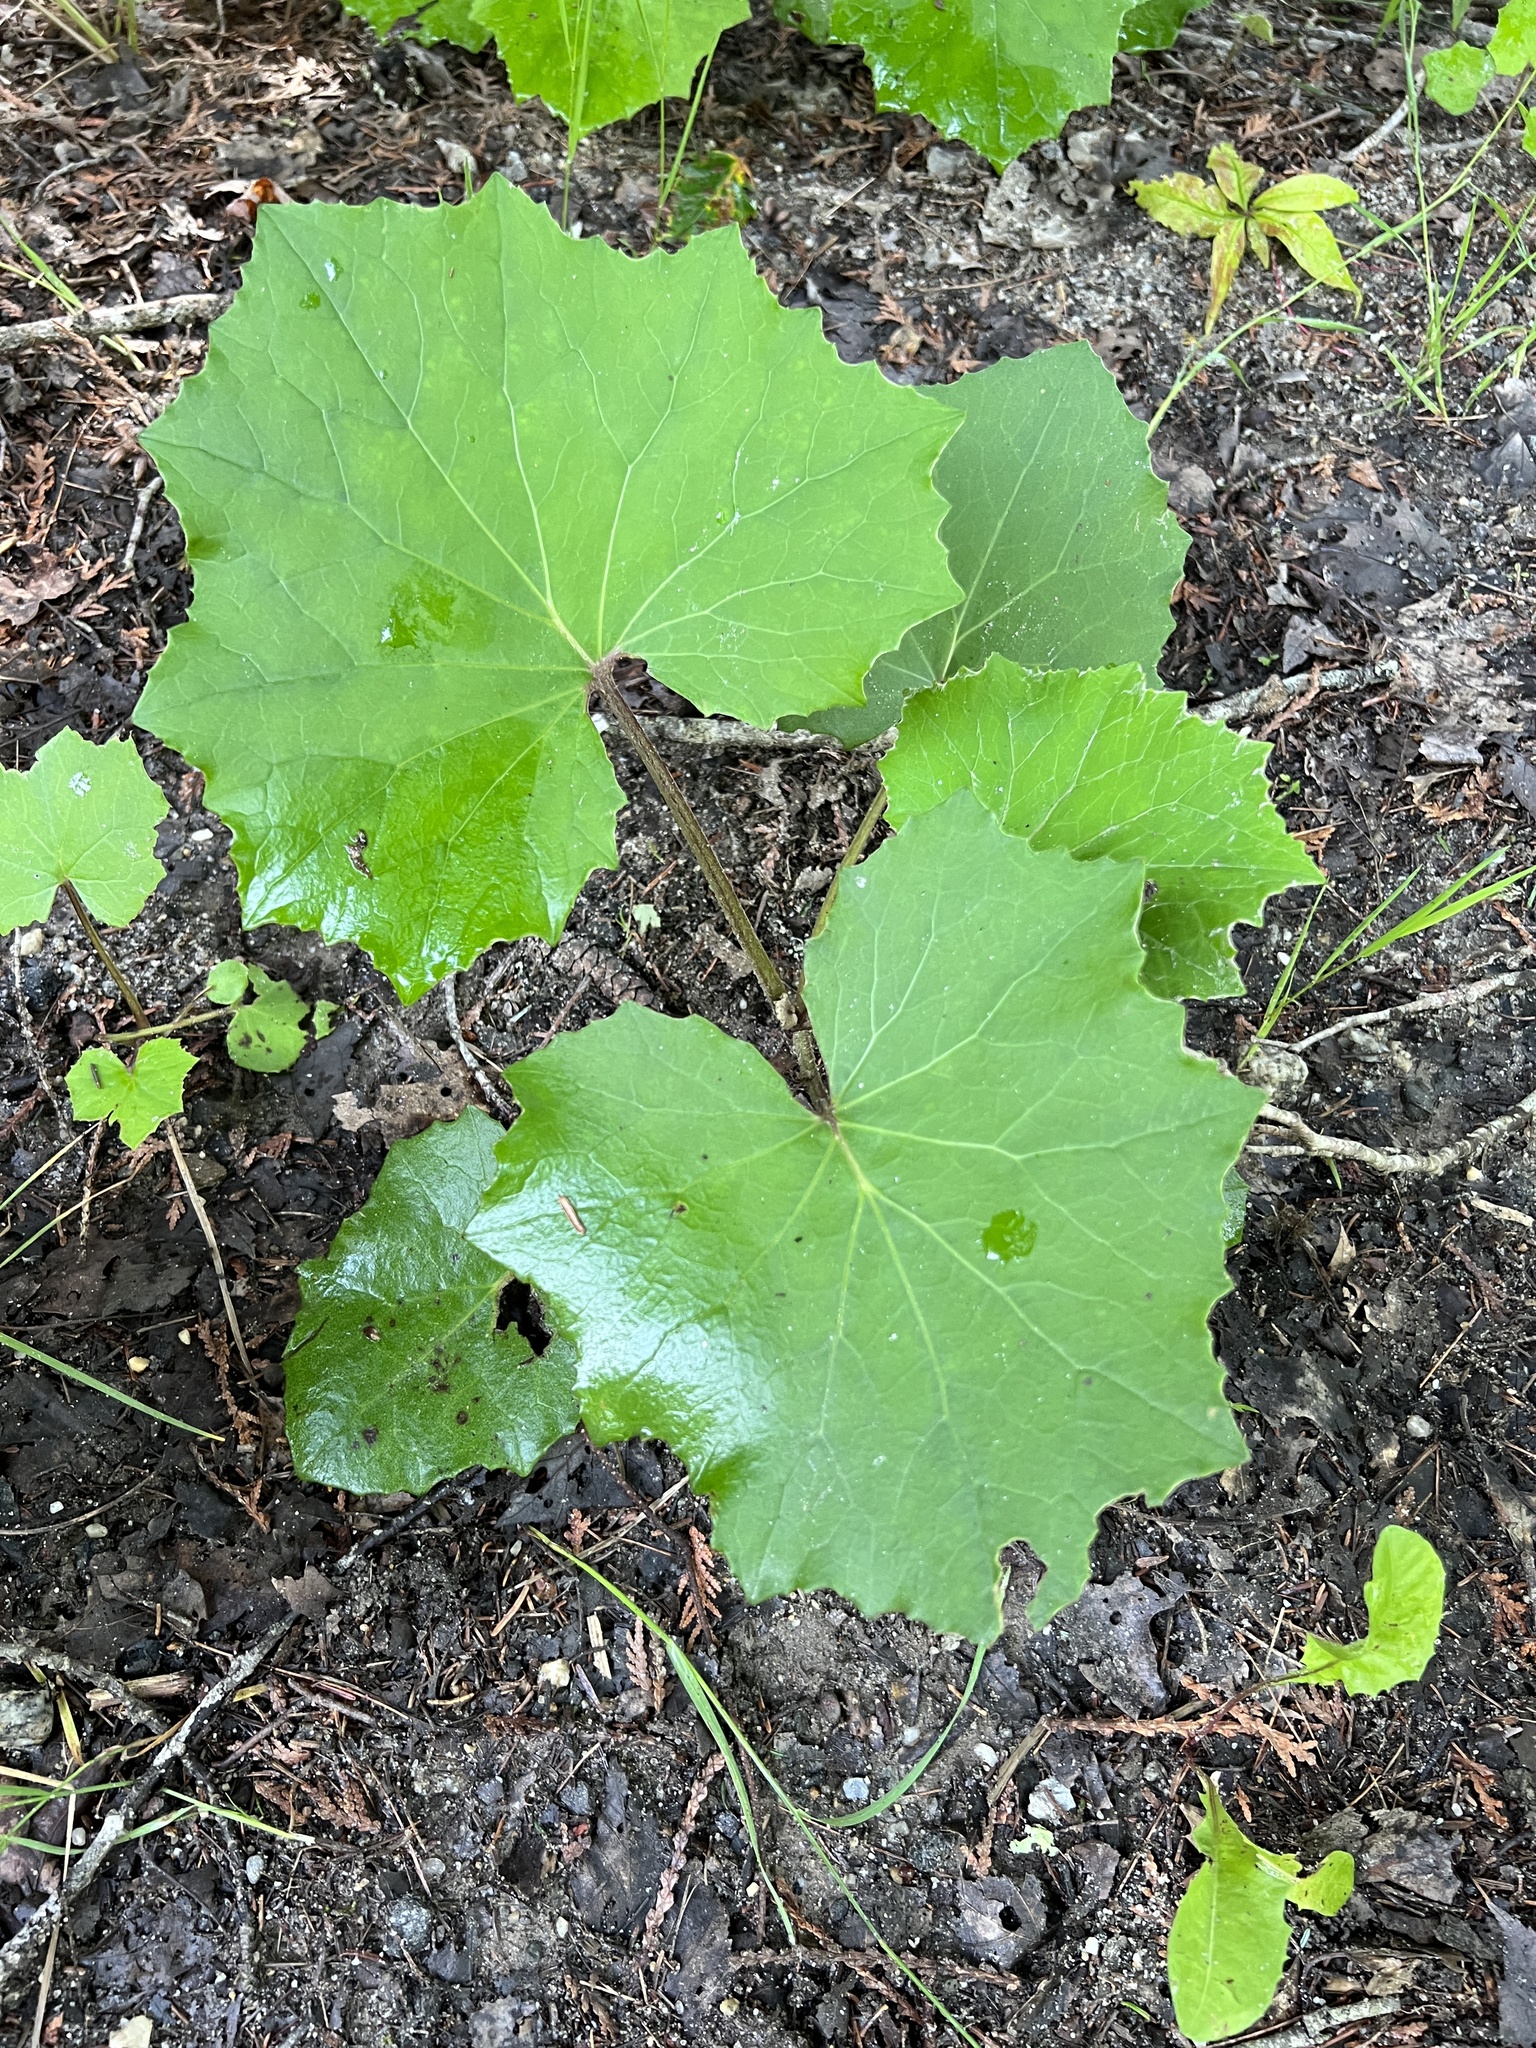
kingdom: Plantae
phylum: Tracheophyta
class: Magnoliopsida
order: Asterales
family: Asteraceae
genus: Tussilago
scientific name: Tussilago farfara
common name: Coltsfoot
